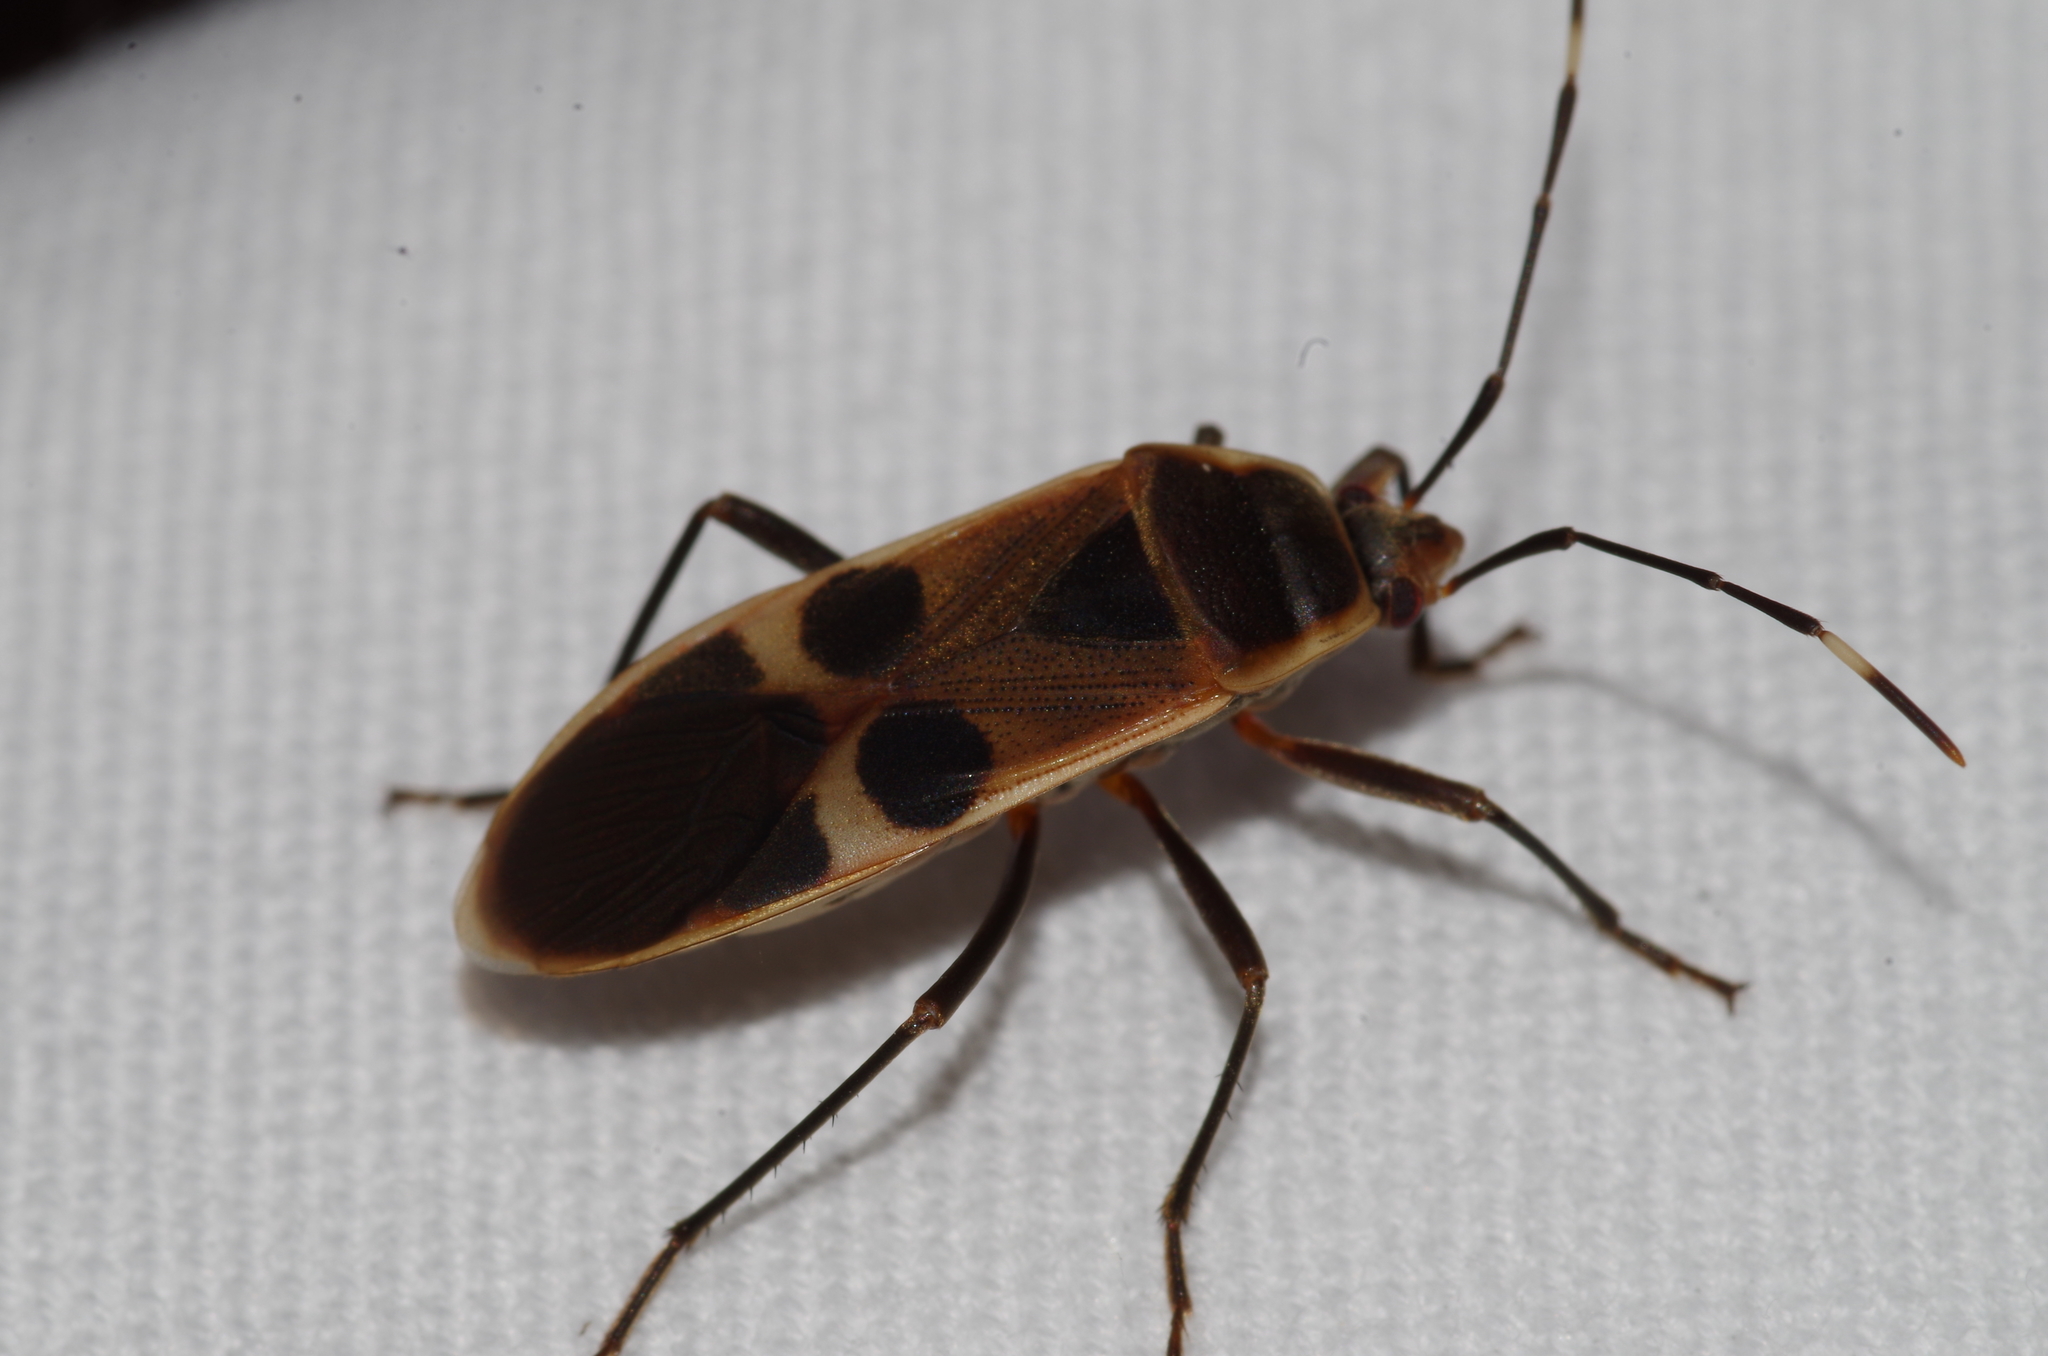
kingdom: Animalia
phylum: Arthropoda
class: Insecta
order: Hemiptera
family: Largidae
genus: Physopelta
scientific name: Physopelta gutta
